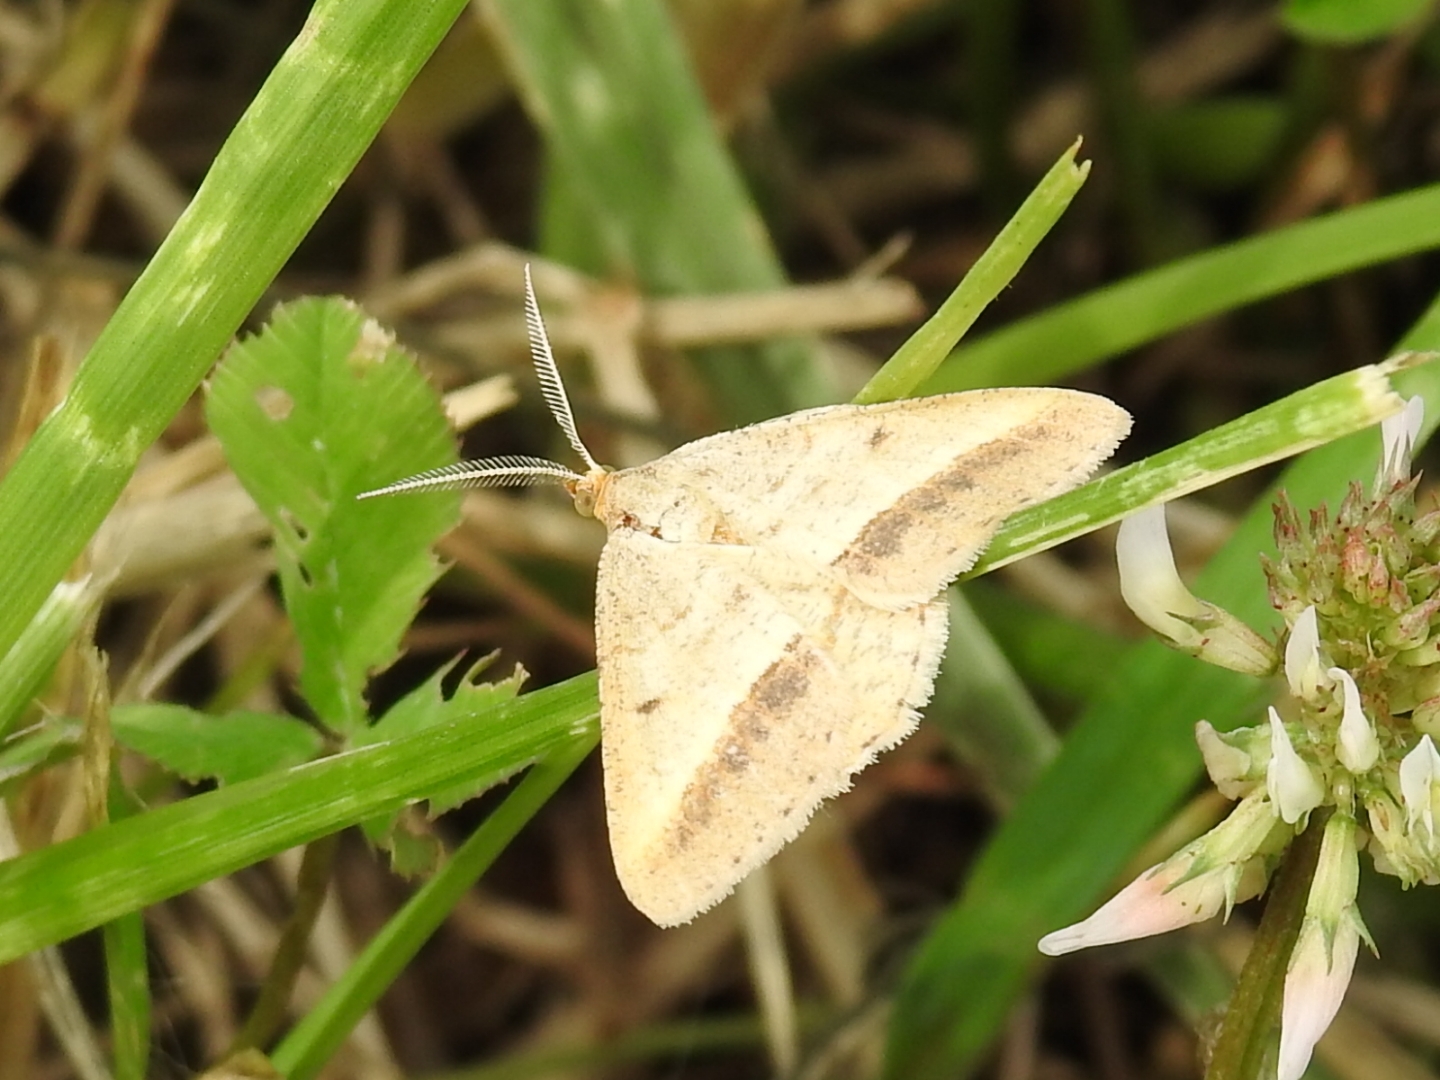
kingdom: Animalia
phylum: Arthropoda
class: Insecta
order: Lepidoptera
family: Geometridae
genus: Tephrina
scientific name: Tephrina arenacearia
